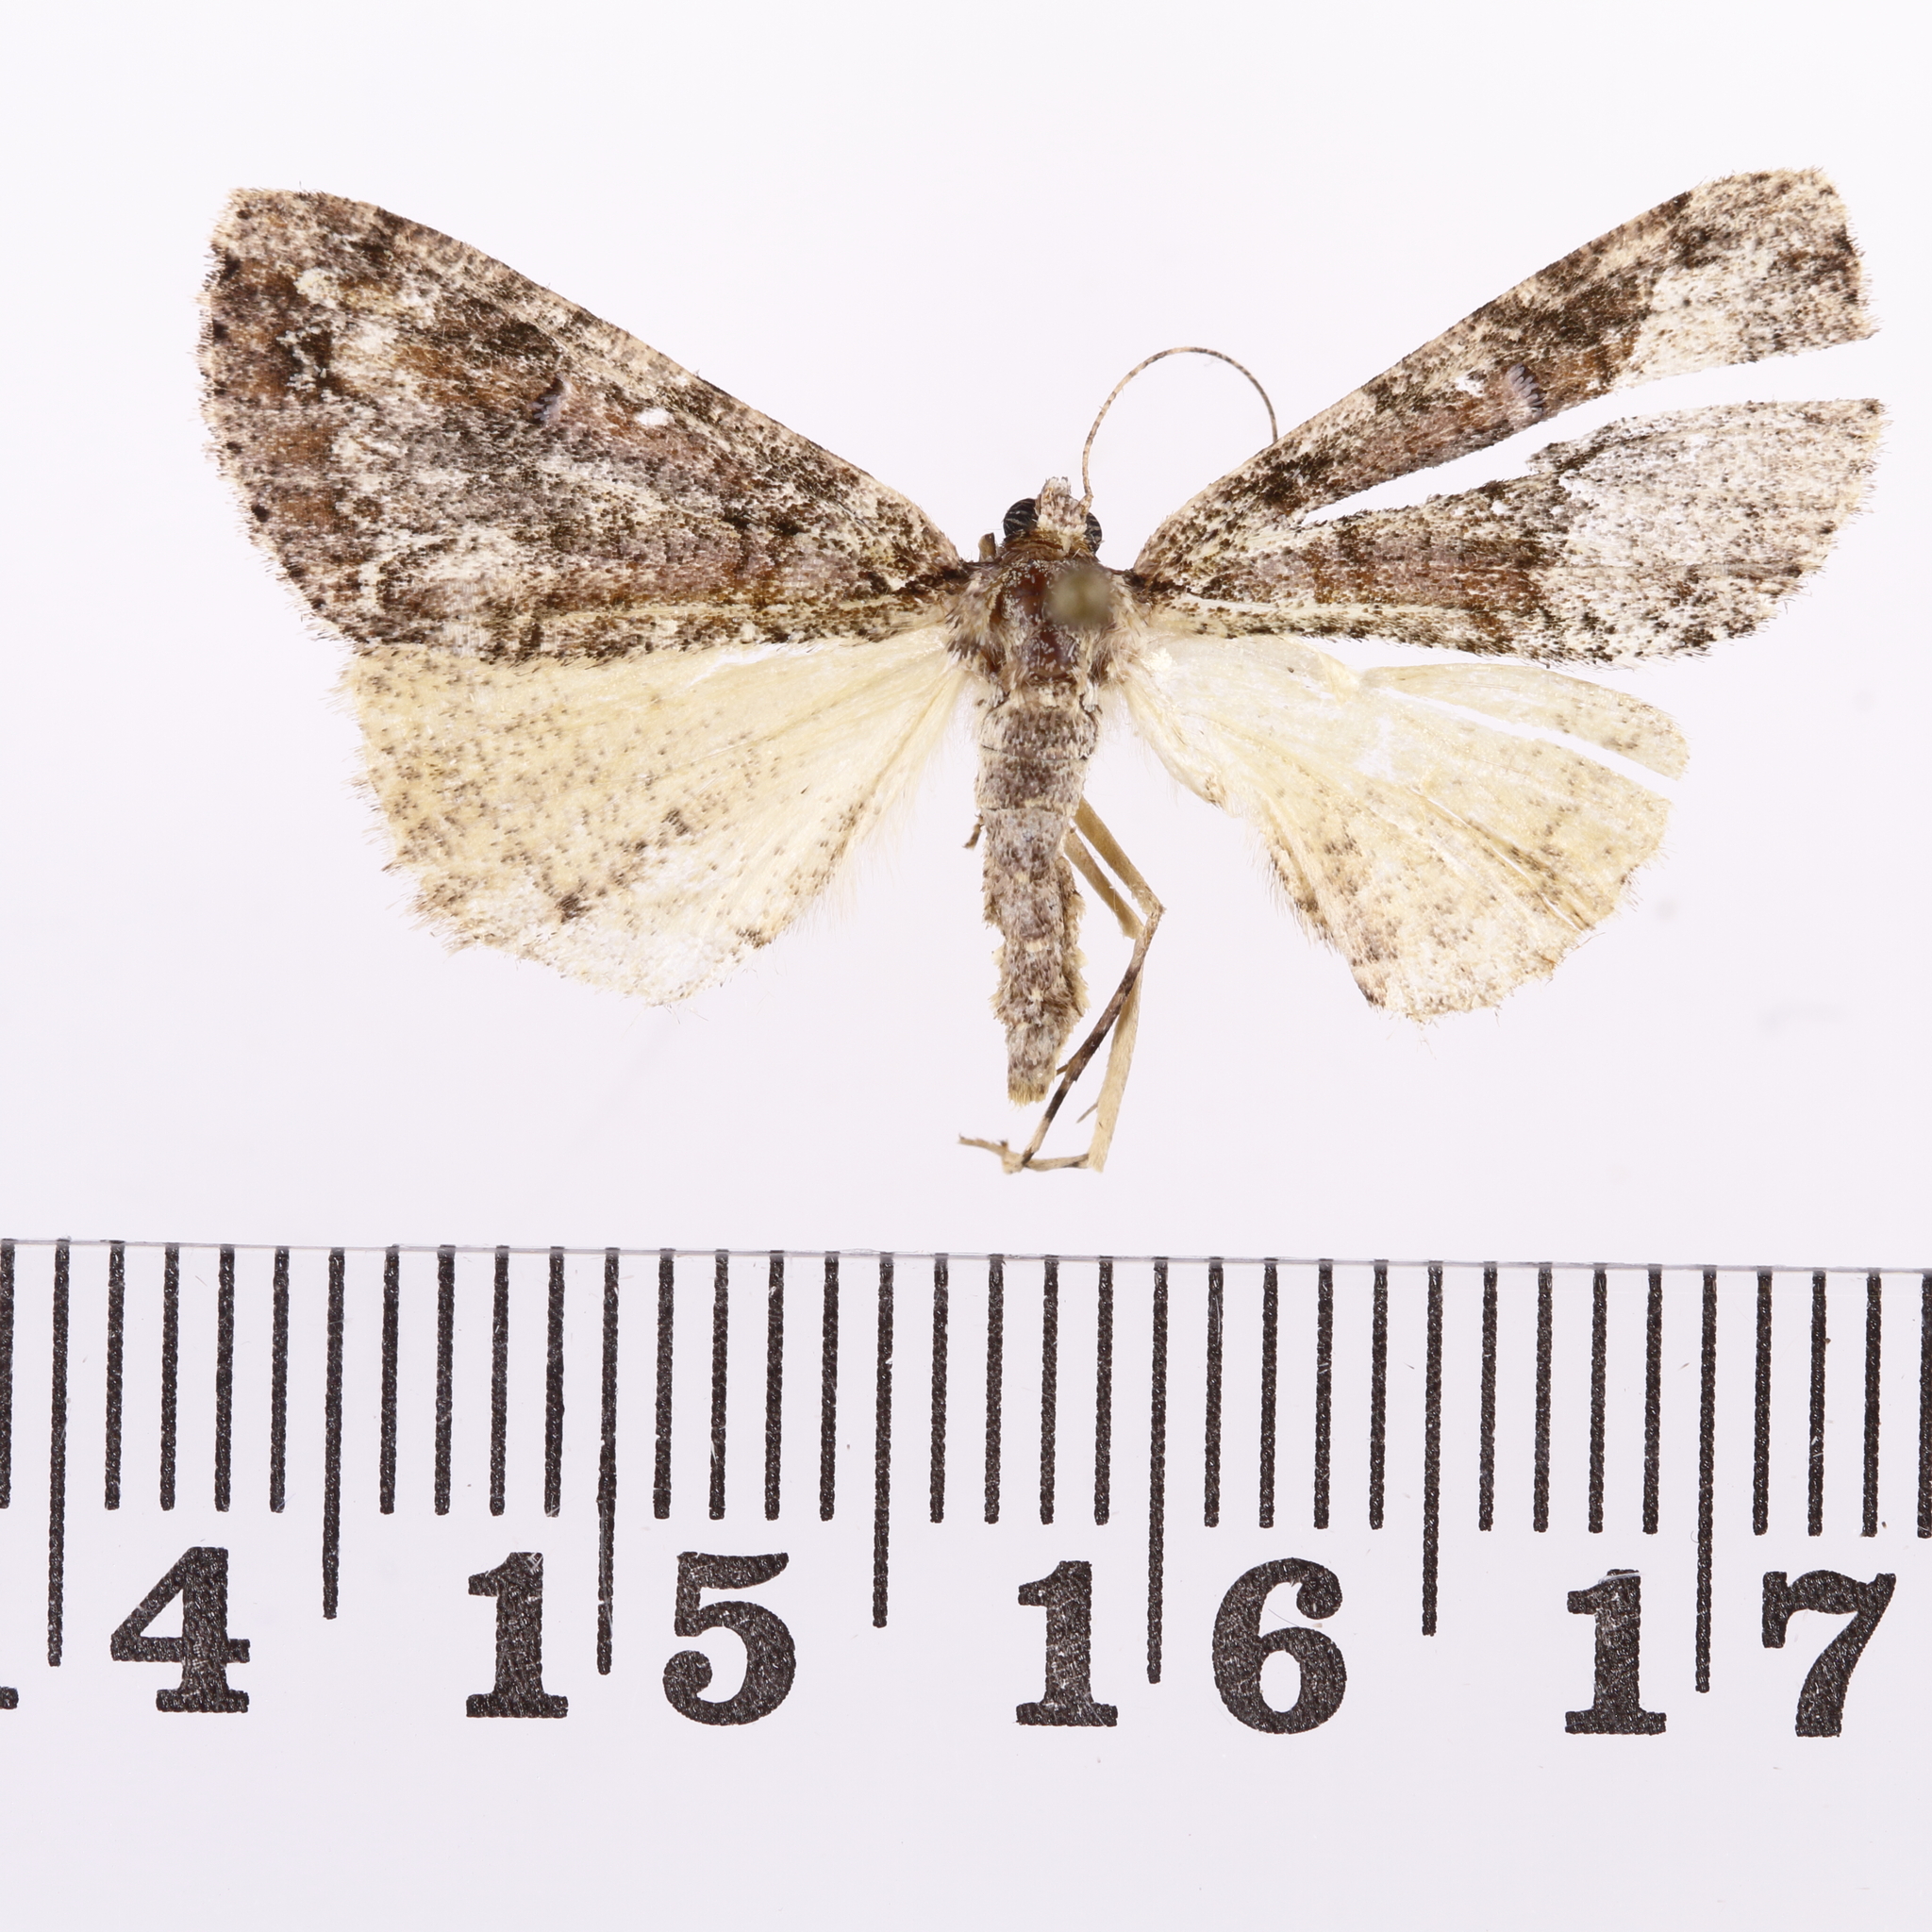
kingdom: Animalia
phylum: Arthropoda
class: Insecta
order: Lepidoptera
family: Geometridae
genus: Pseudocoremia
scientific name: Pseudocoremia suavis
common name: Common forest looper
